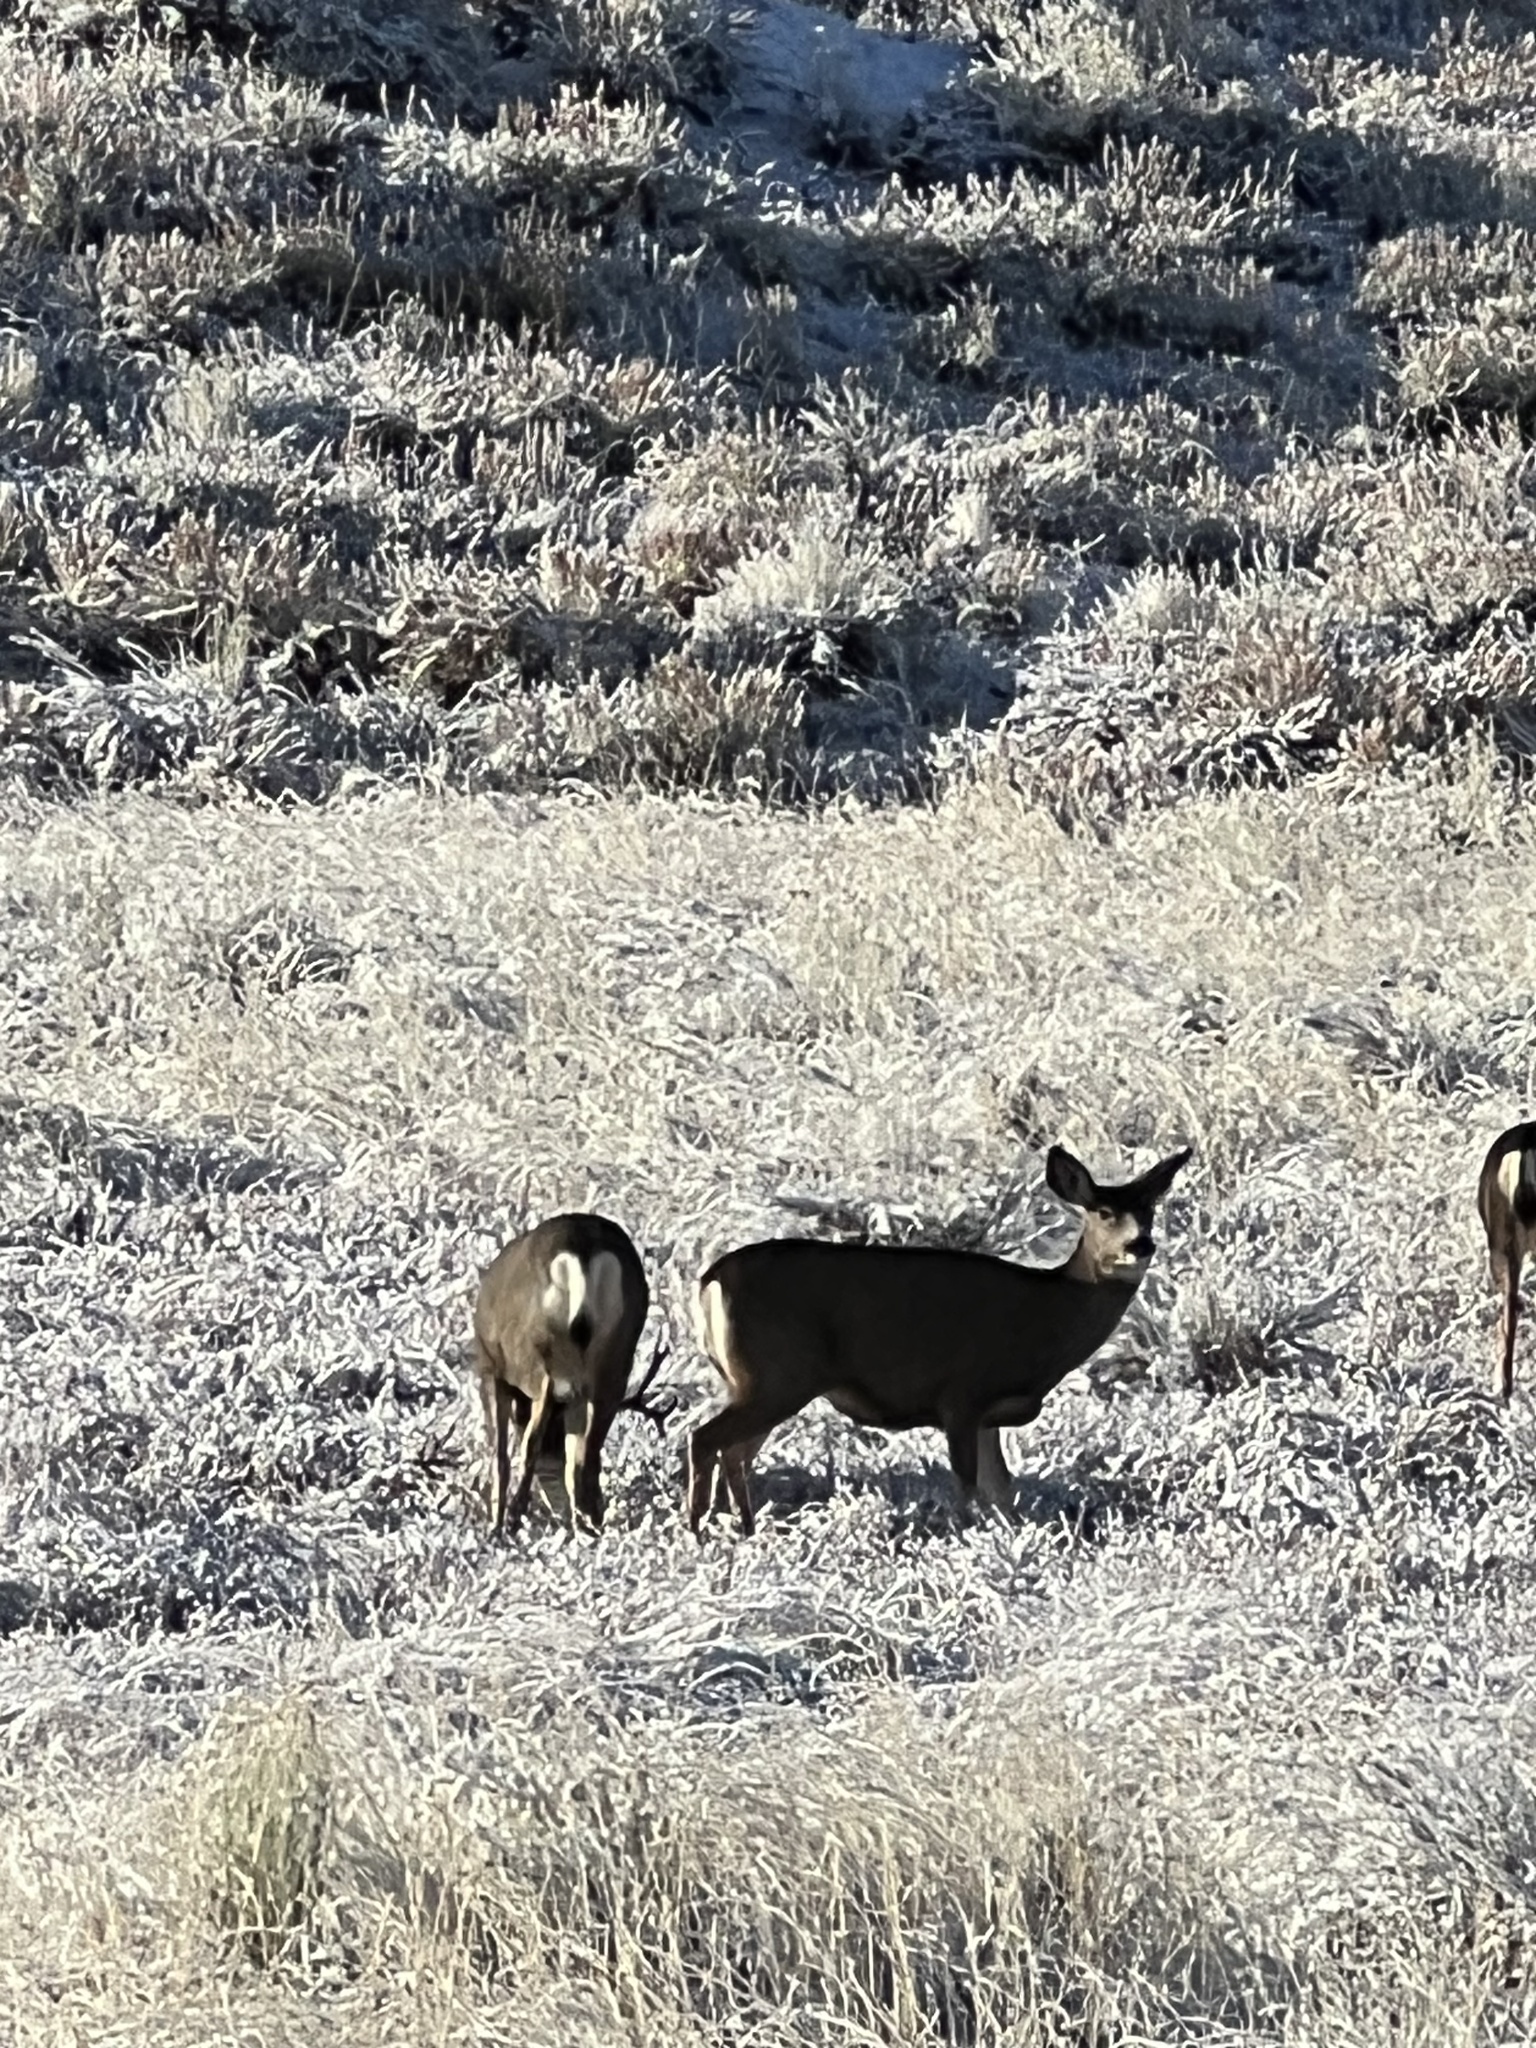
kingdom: Animalia
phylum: Chordata
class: Mammalia
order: Artiodactyla
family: Cervidae
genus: Odocoileus
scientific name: Odocoileus hemionus
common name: Mule deer
